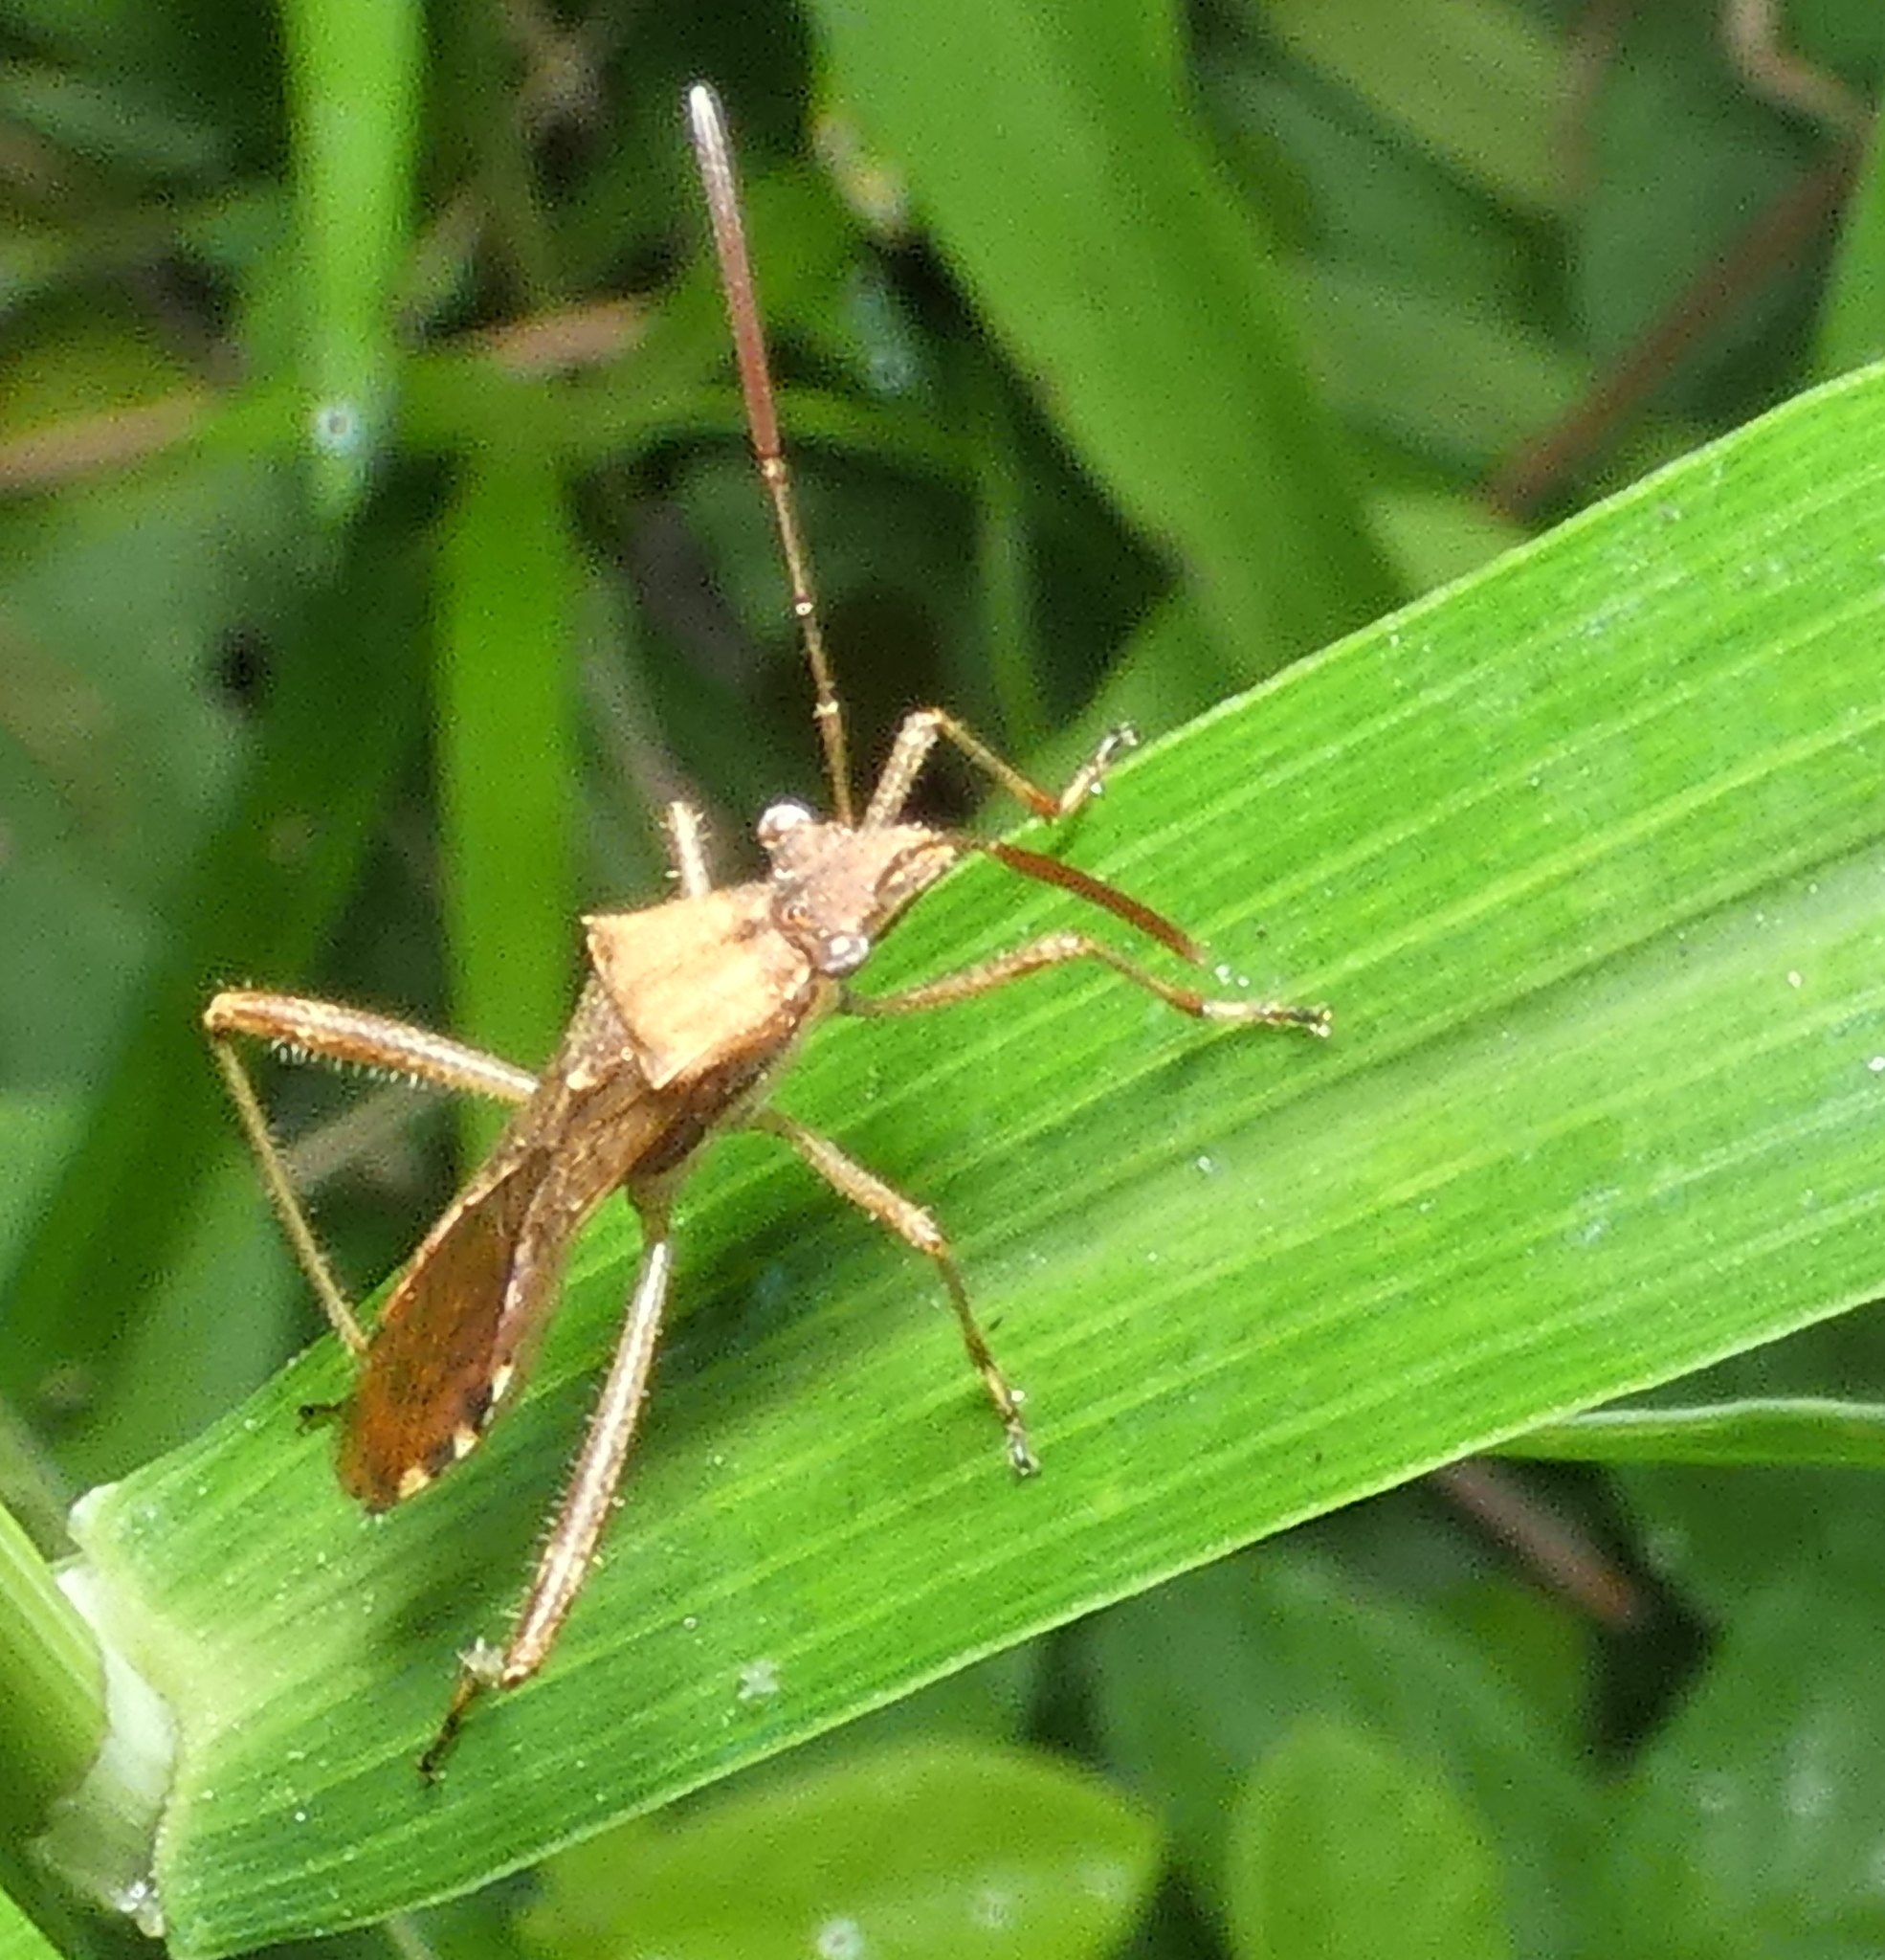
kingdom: Animalia
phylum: Arthropoda
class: Insecta
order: Hemiptera
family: Alydidae
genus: Neomegalotomus
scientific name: Neomegalotomus parvus
